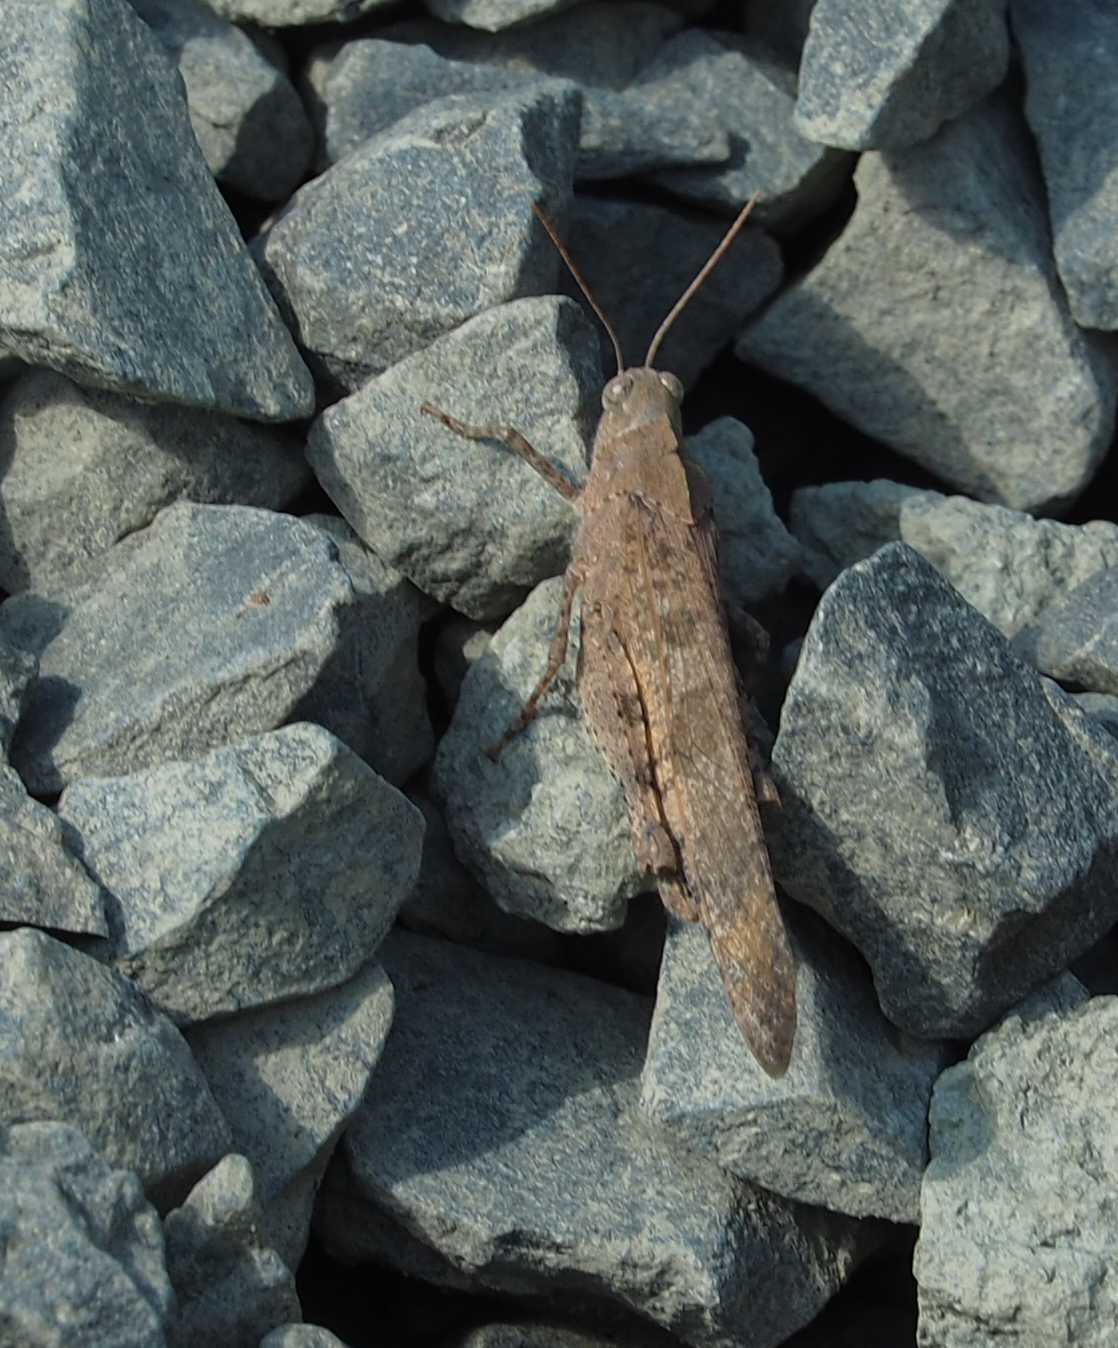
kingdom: Animalia
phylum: Arthropoda
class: Insecta
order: Orthoptera
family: Acrididae
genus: Dissosteira
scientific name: Dissosteira carolina
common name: Carolina grasshopper
